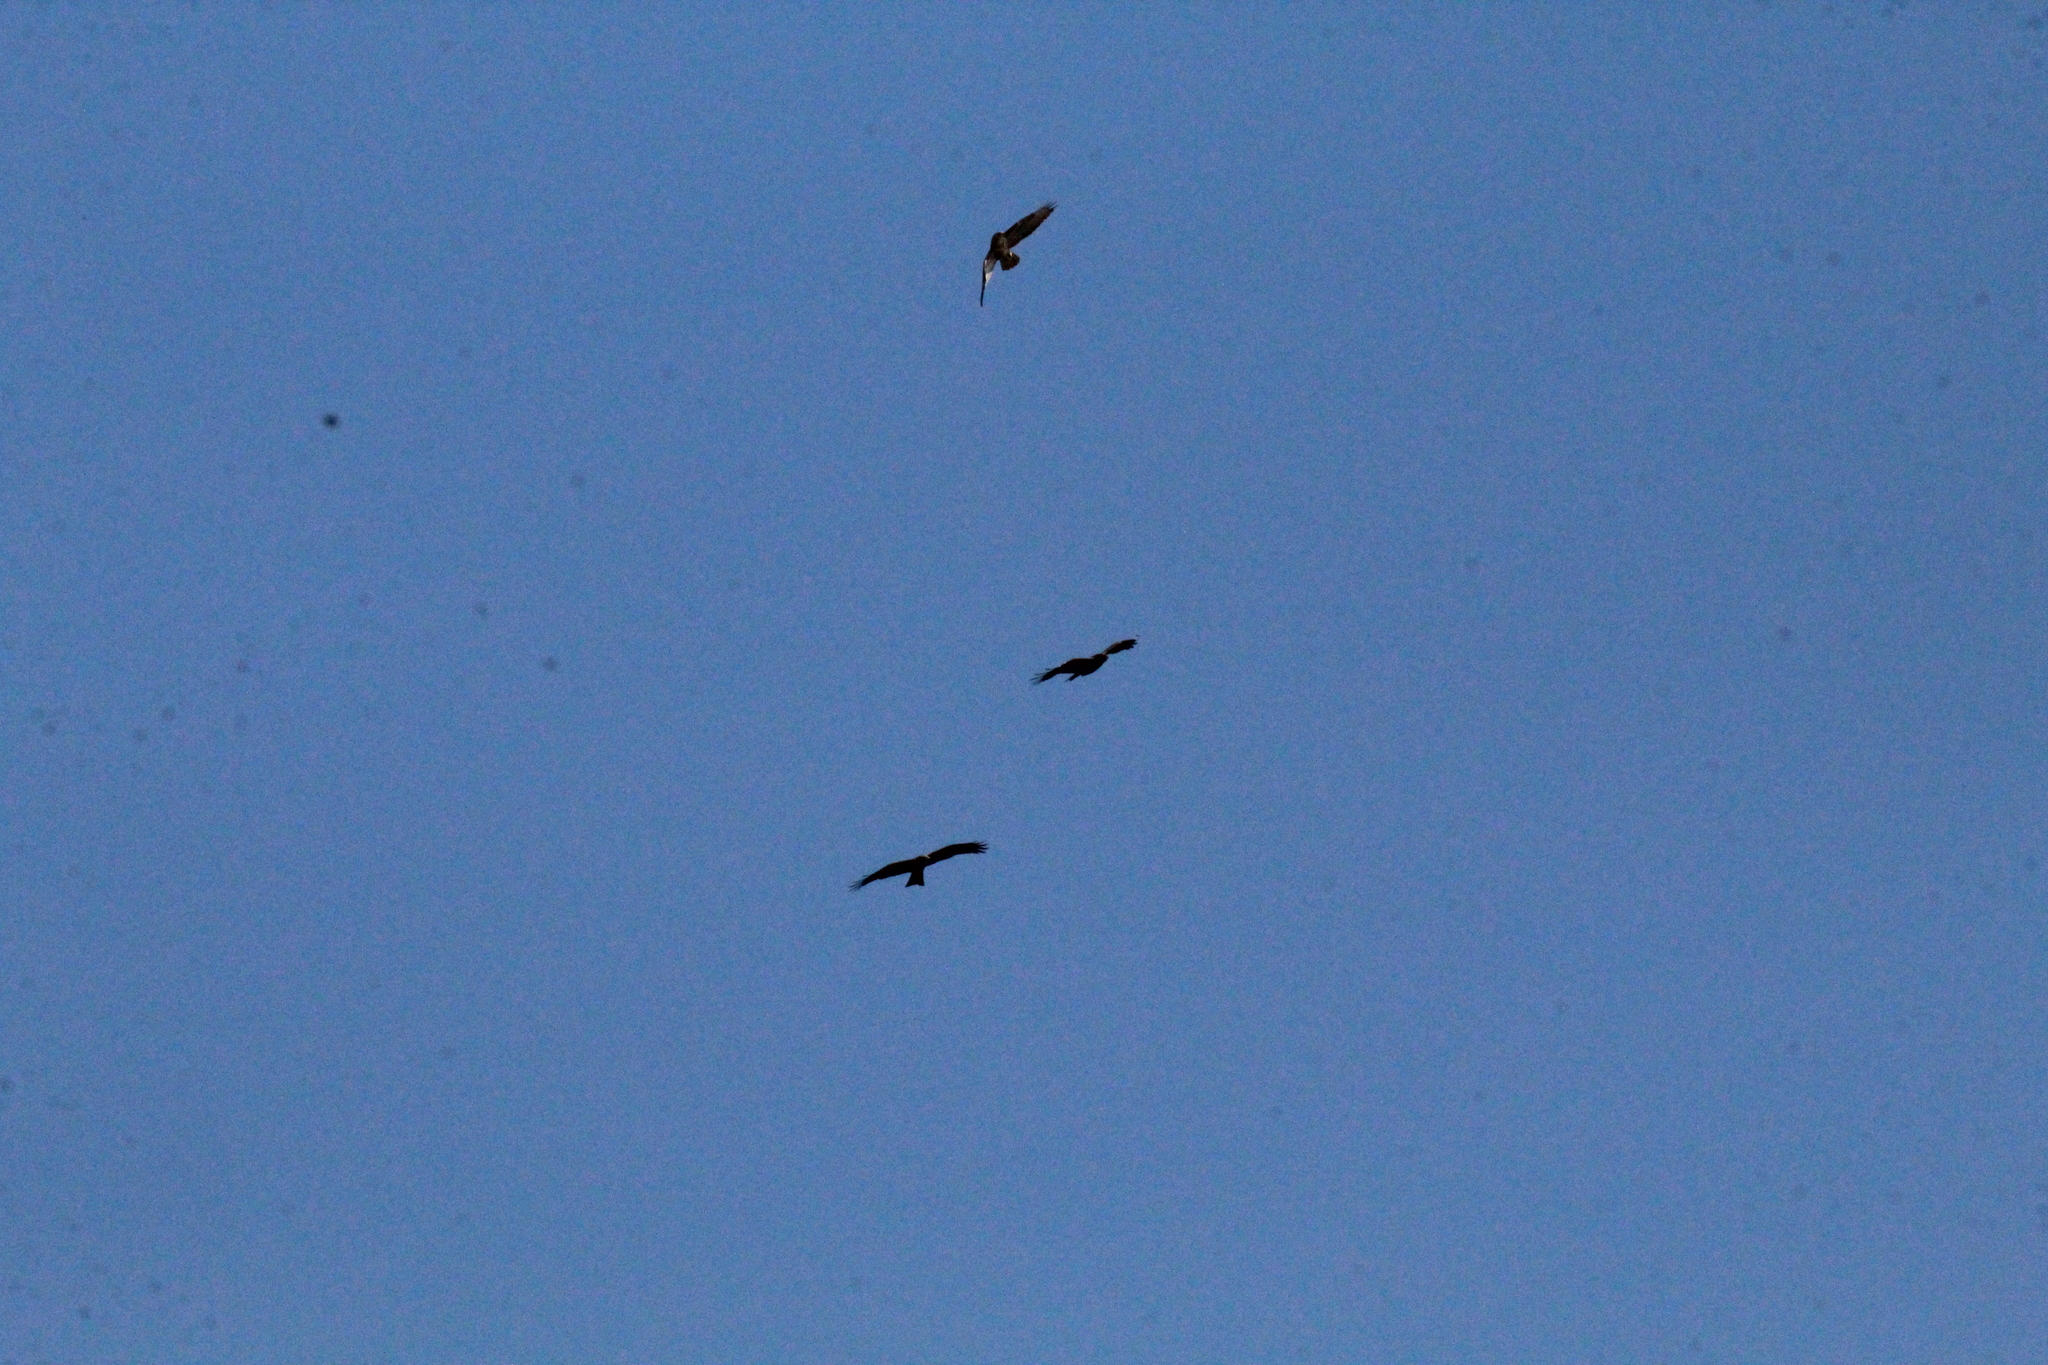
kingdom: Animalia
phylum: Chordata
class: Aves
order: Accipitriformes
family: Accipitridae
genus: Milvus
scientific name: Milvus migrans
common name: Black kite
